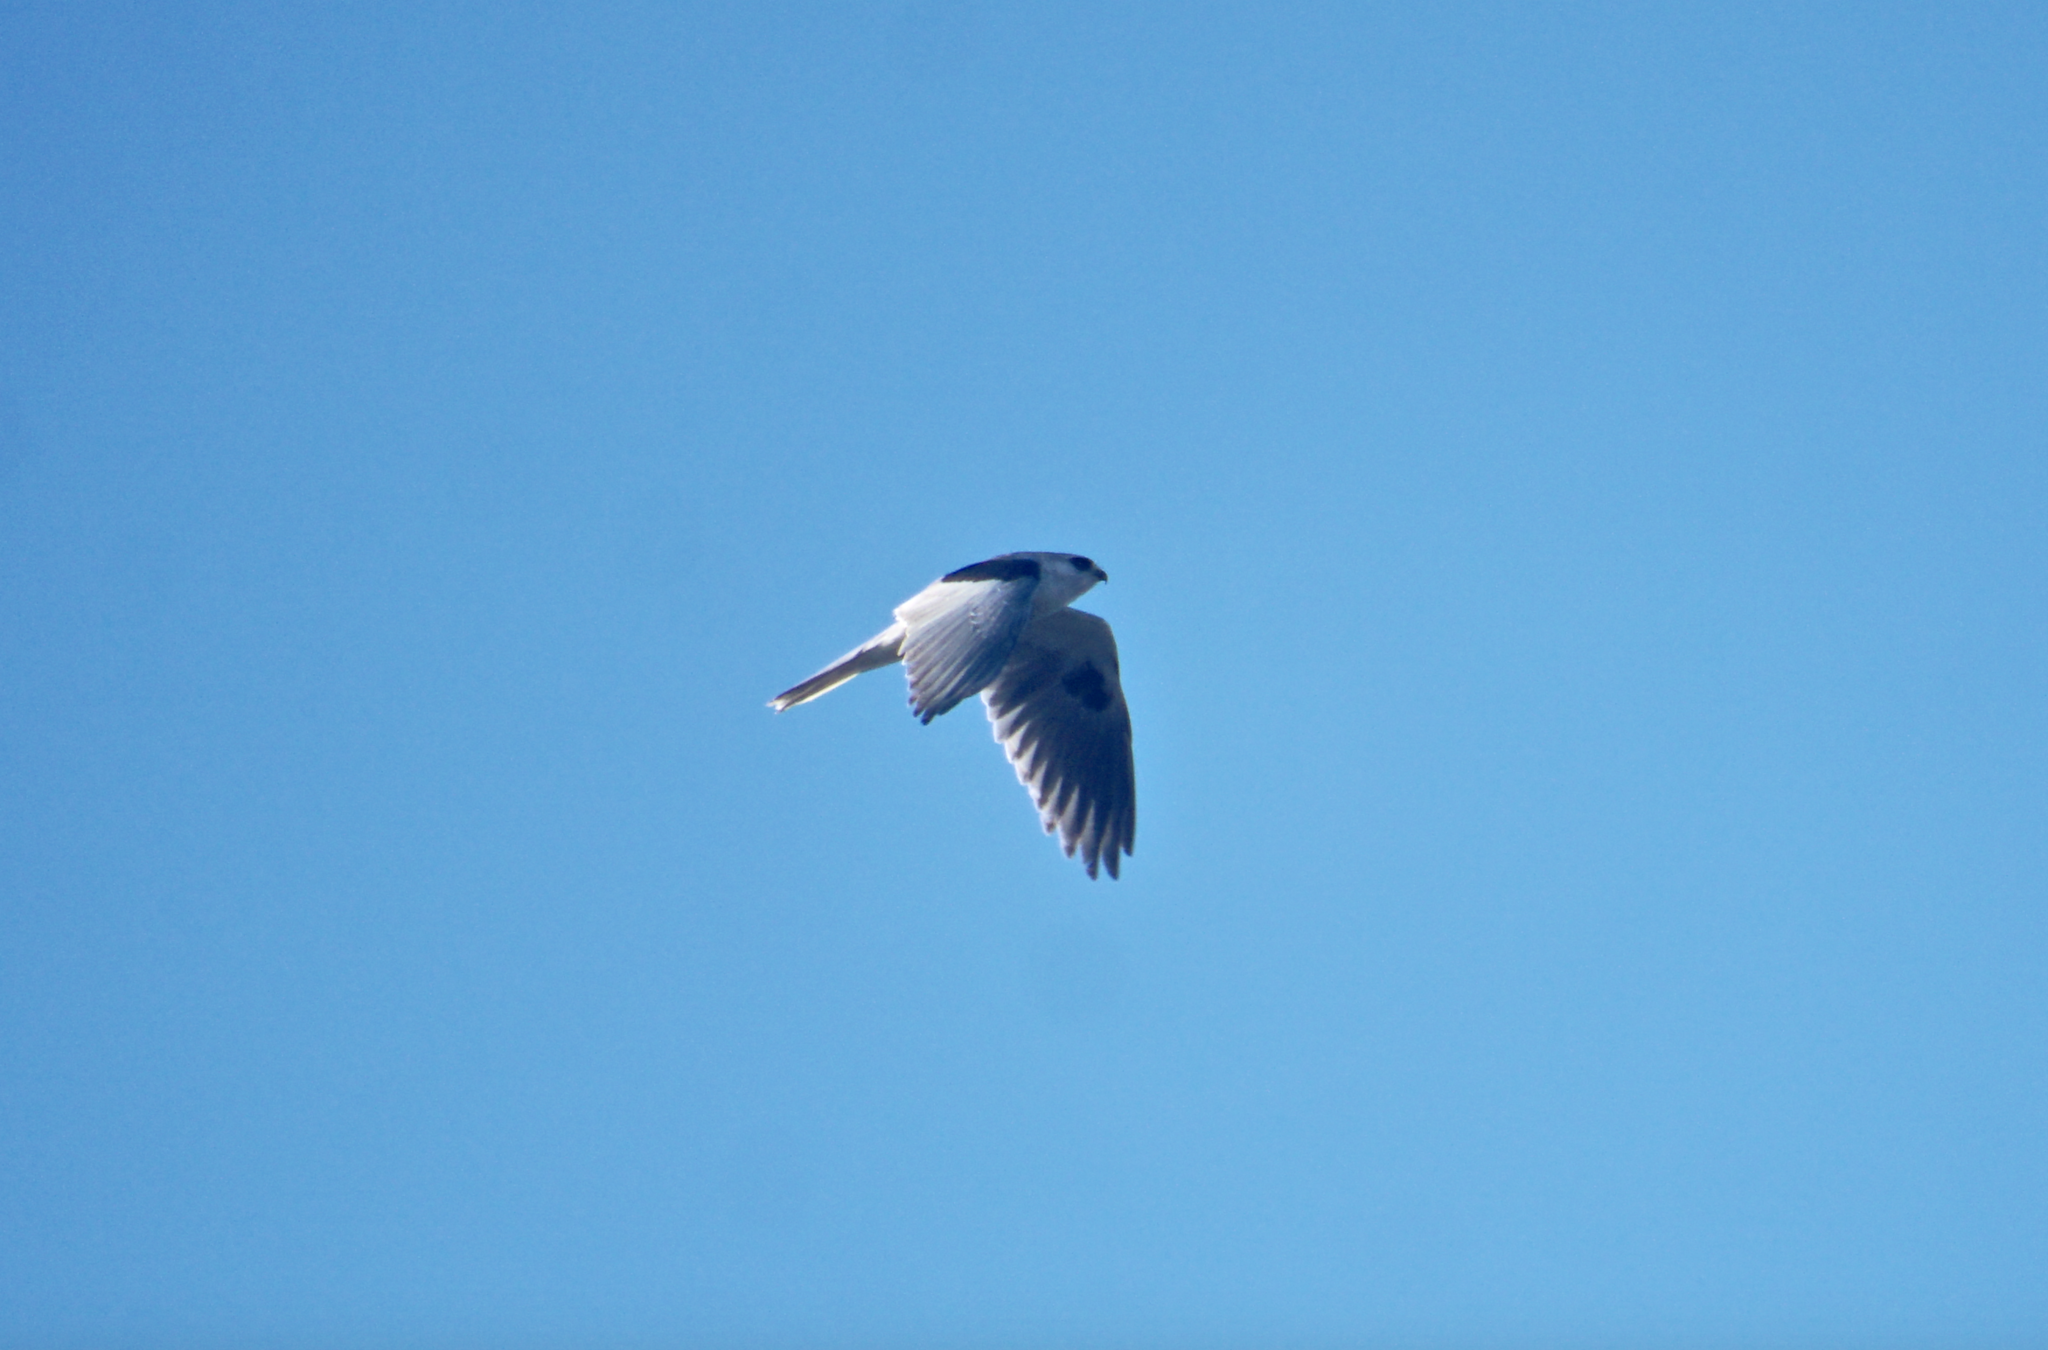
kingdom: Animalia
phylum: Chordata
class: Aves
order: Accipitriformes
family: Accipitridae
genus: Elanus
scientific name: Elanus leucurus
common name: White-tailed kite
